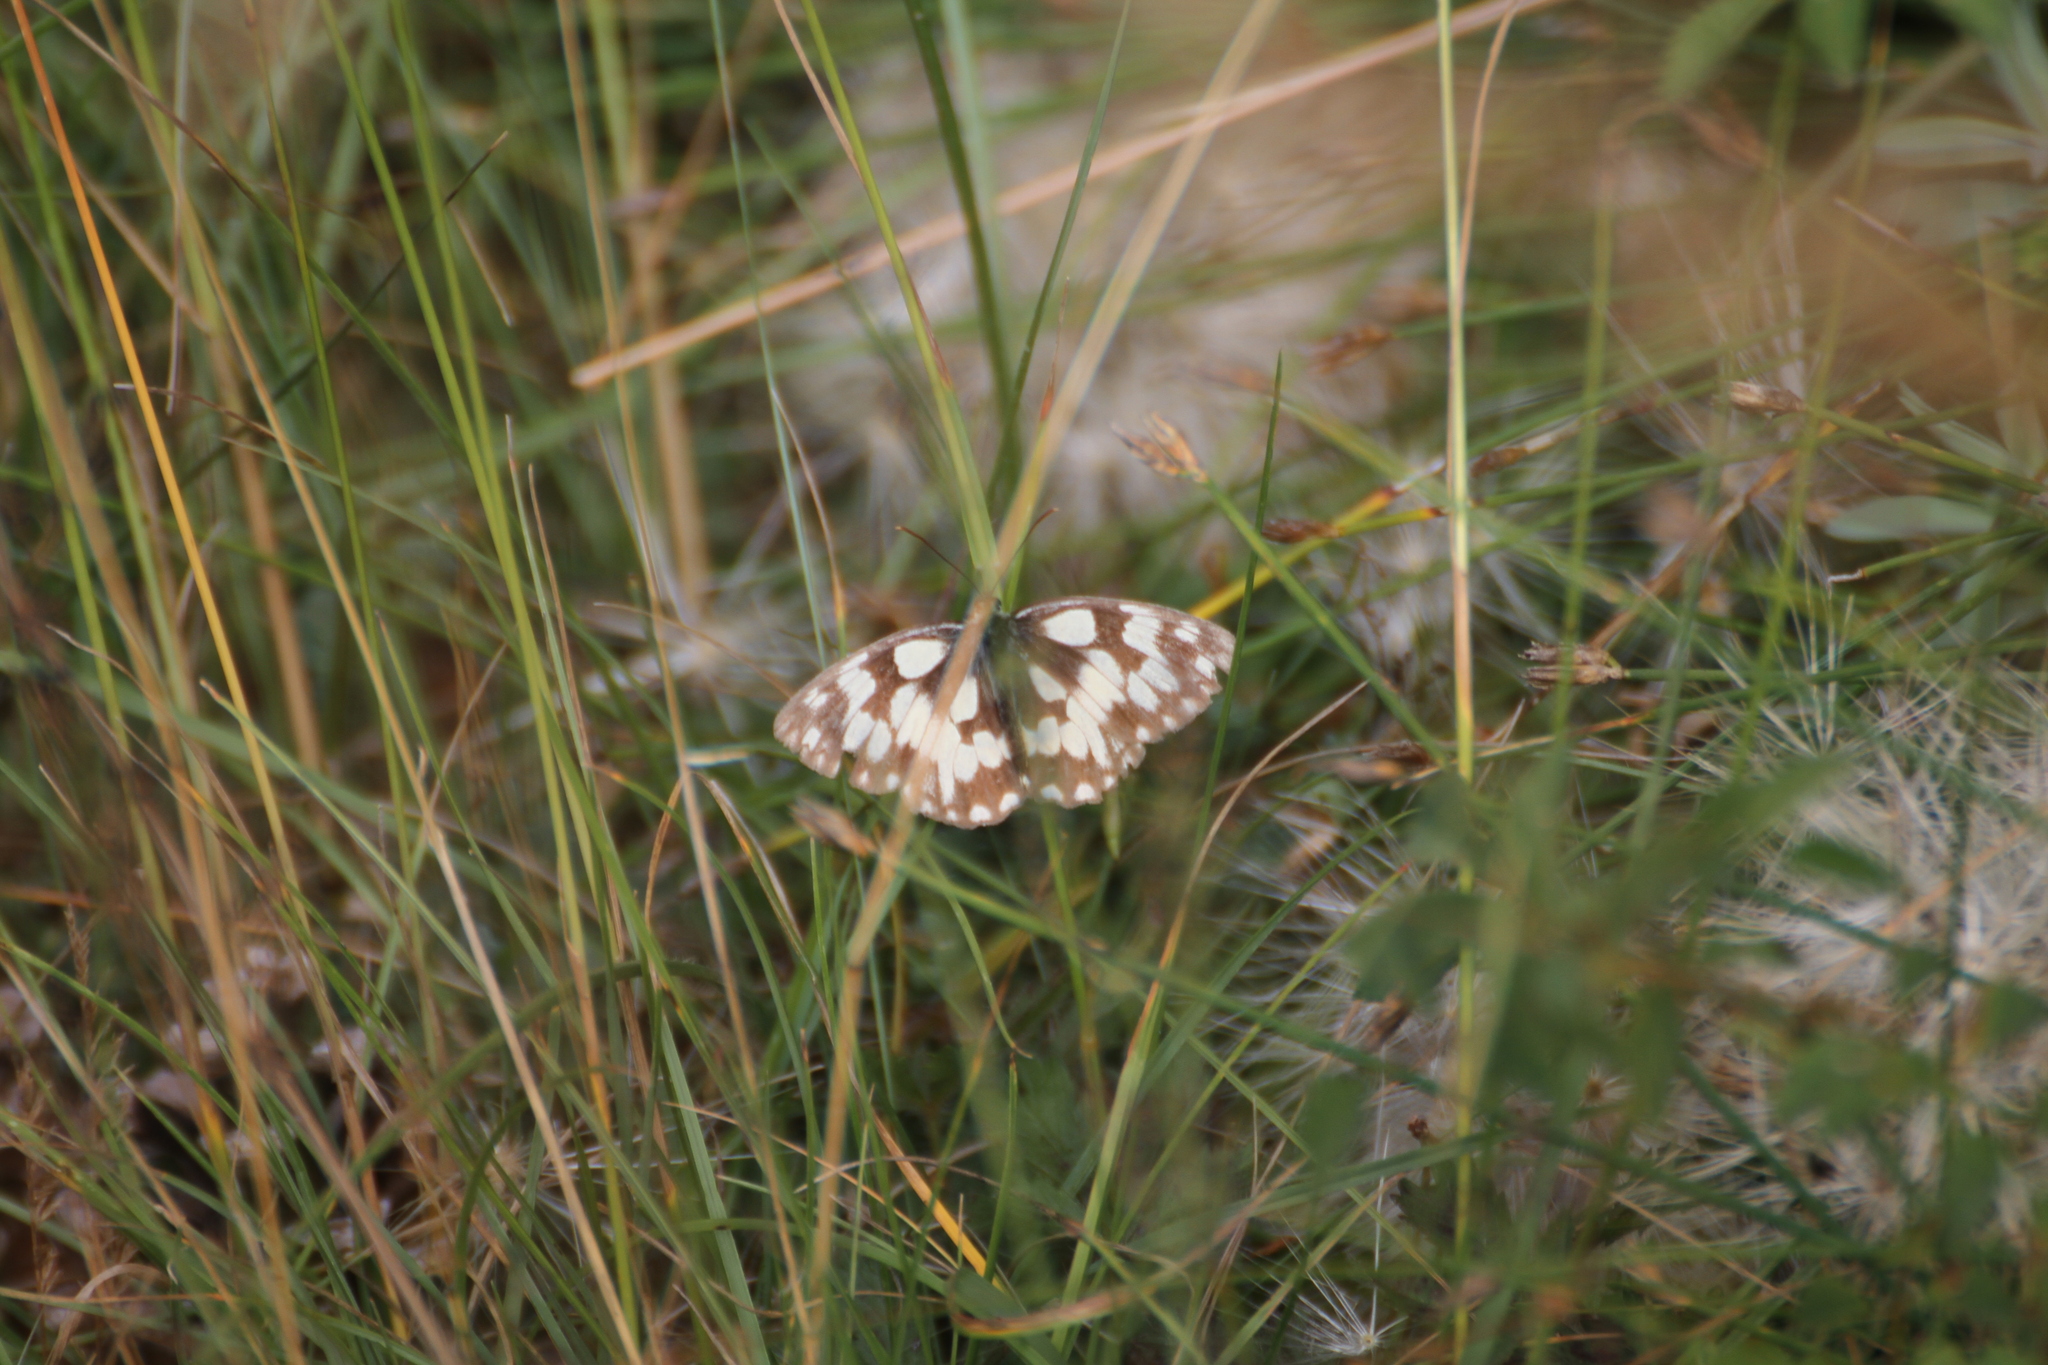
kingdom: Animalia
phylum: Arthropoda
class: Insecta
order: Lepidoptera
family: Nymphalidae
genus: Melanargia
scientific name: Melanargia galathea
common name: Marbled white
